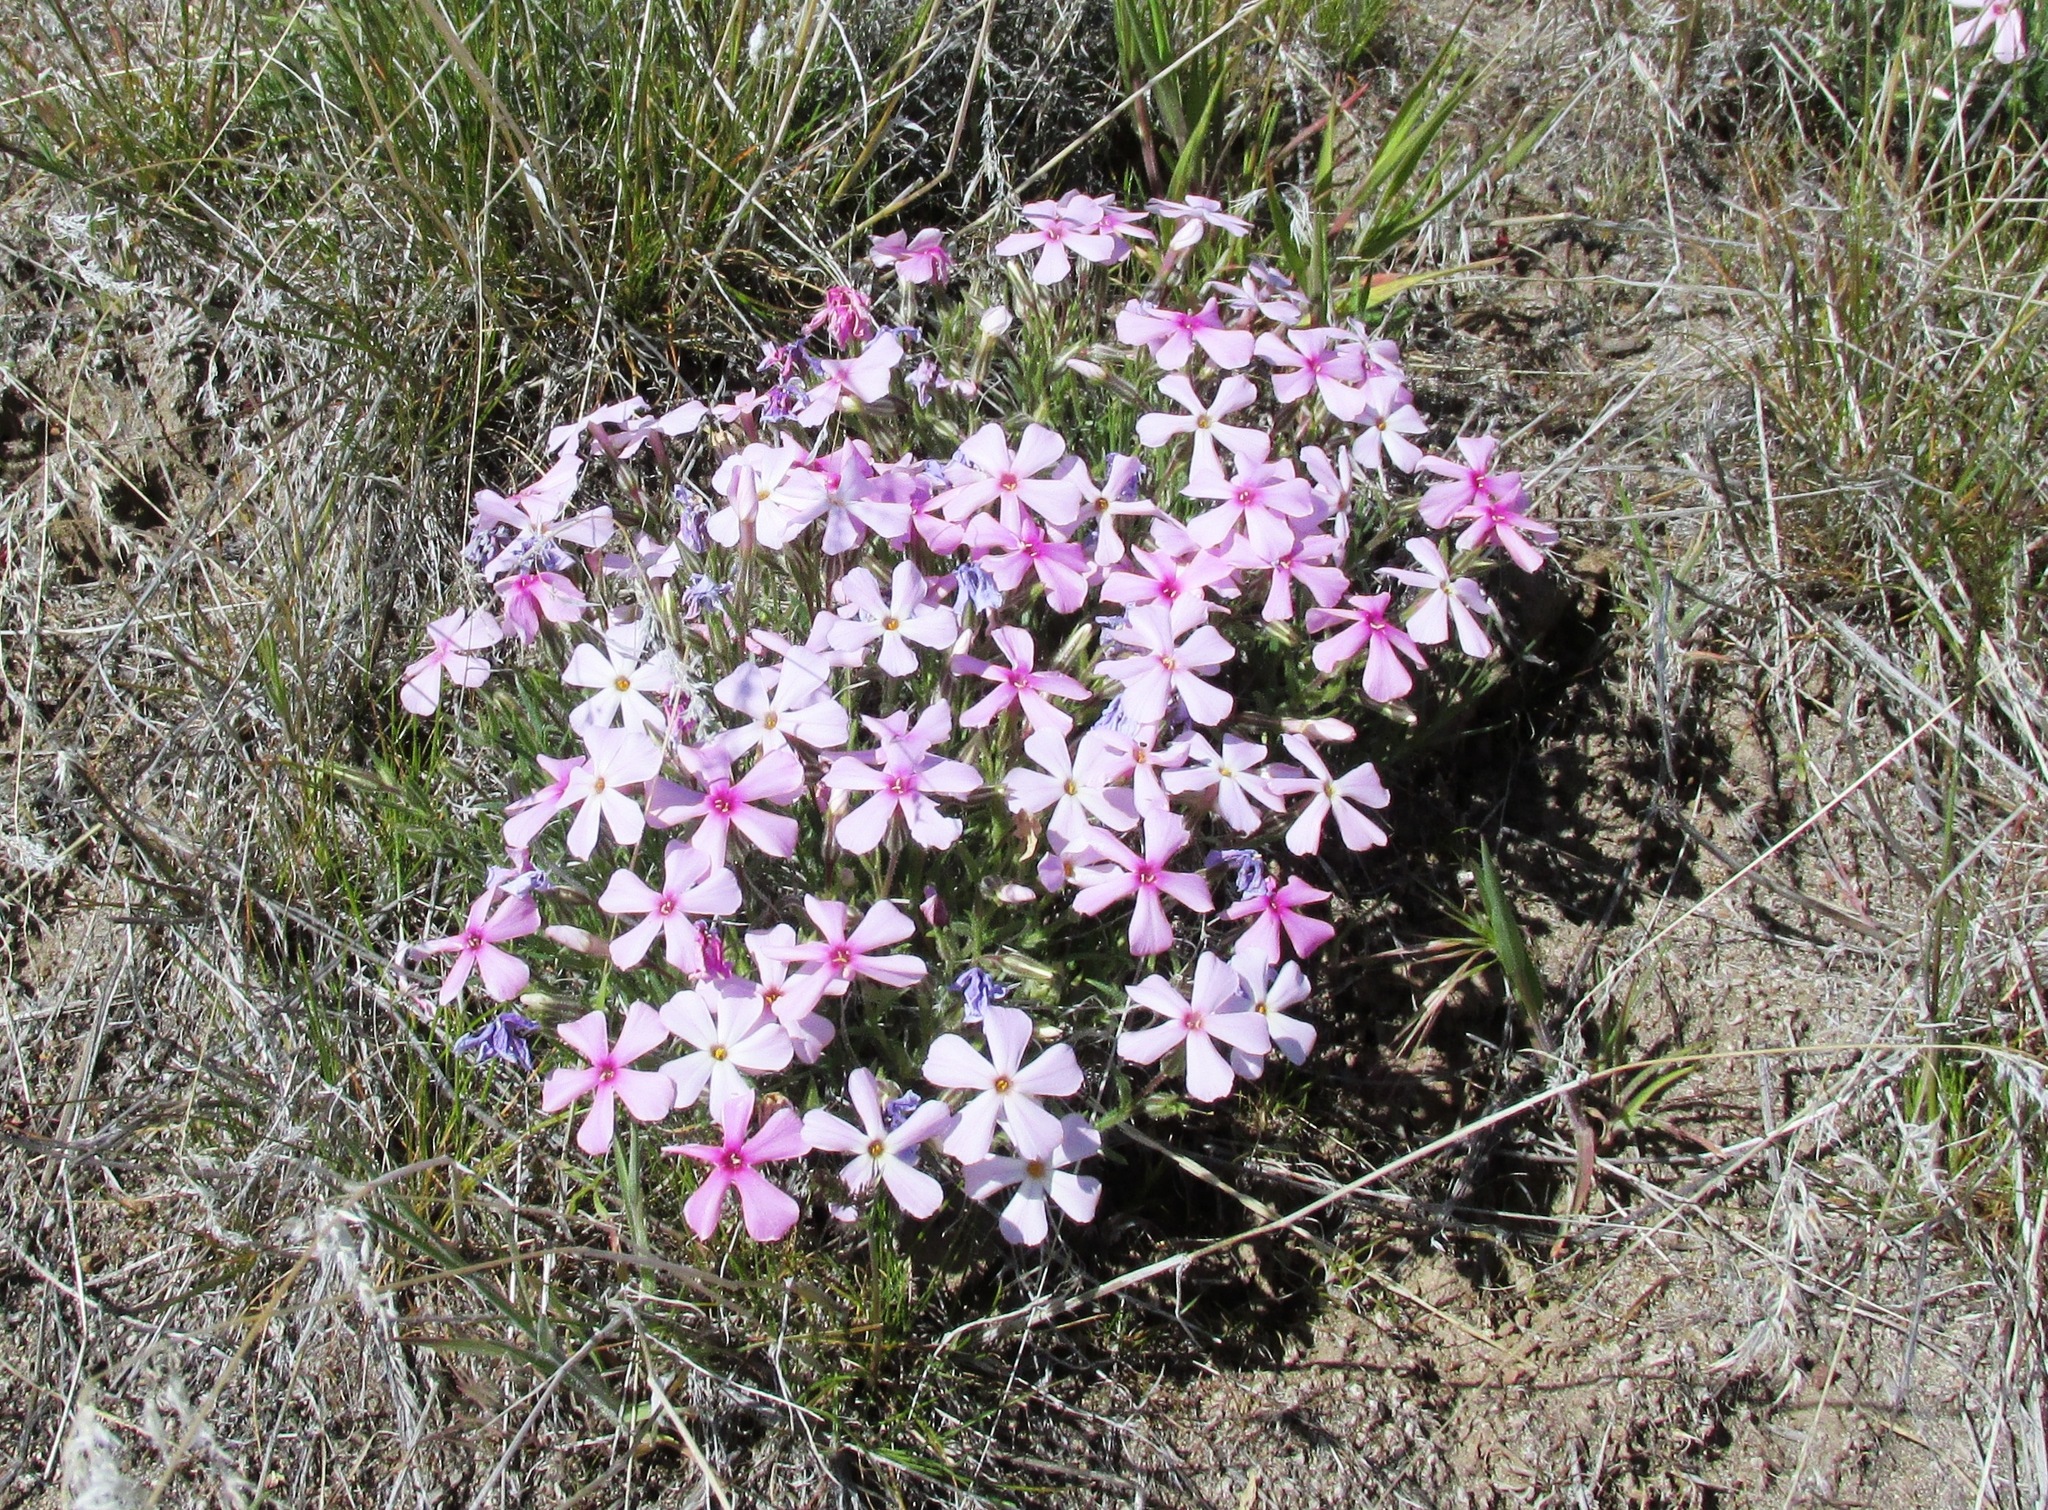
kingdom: Plantae
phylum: Tracheophyta
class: Magnoliopsida
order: Ericales
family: Polemoniaceae
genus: Phlox
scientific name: Phlox longifolia
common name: Longleaf phlox
